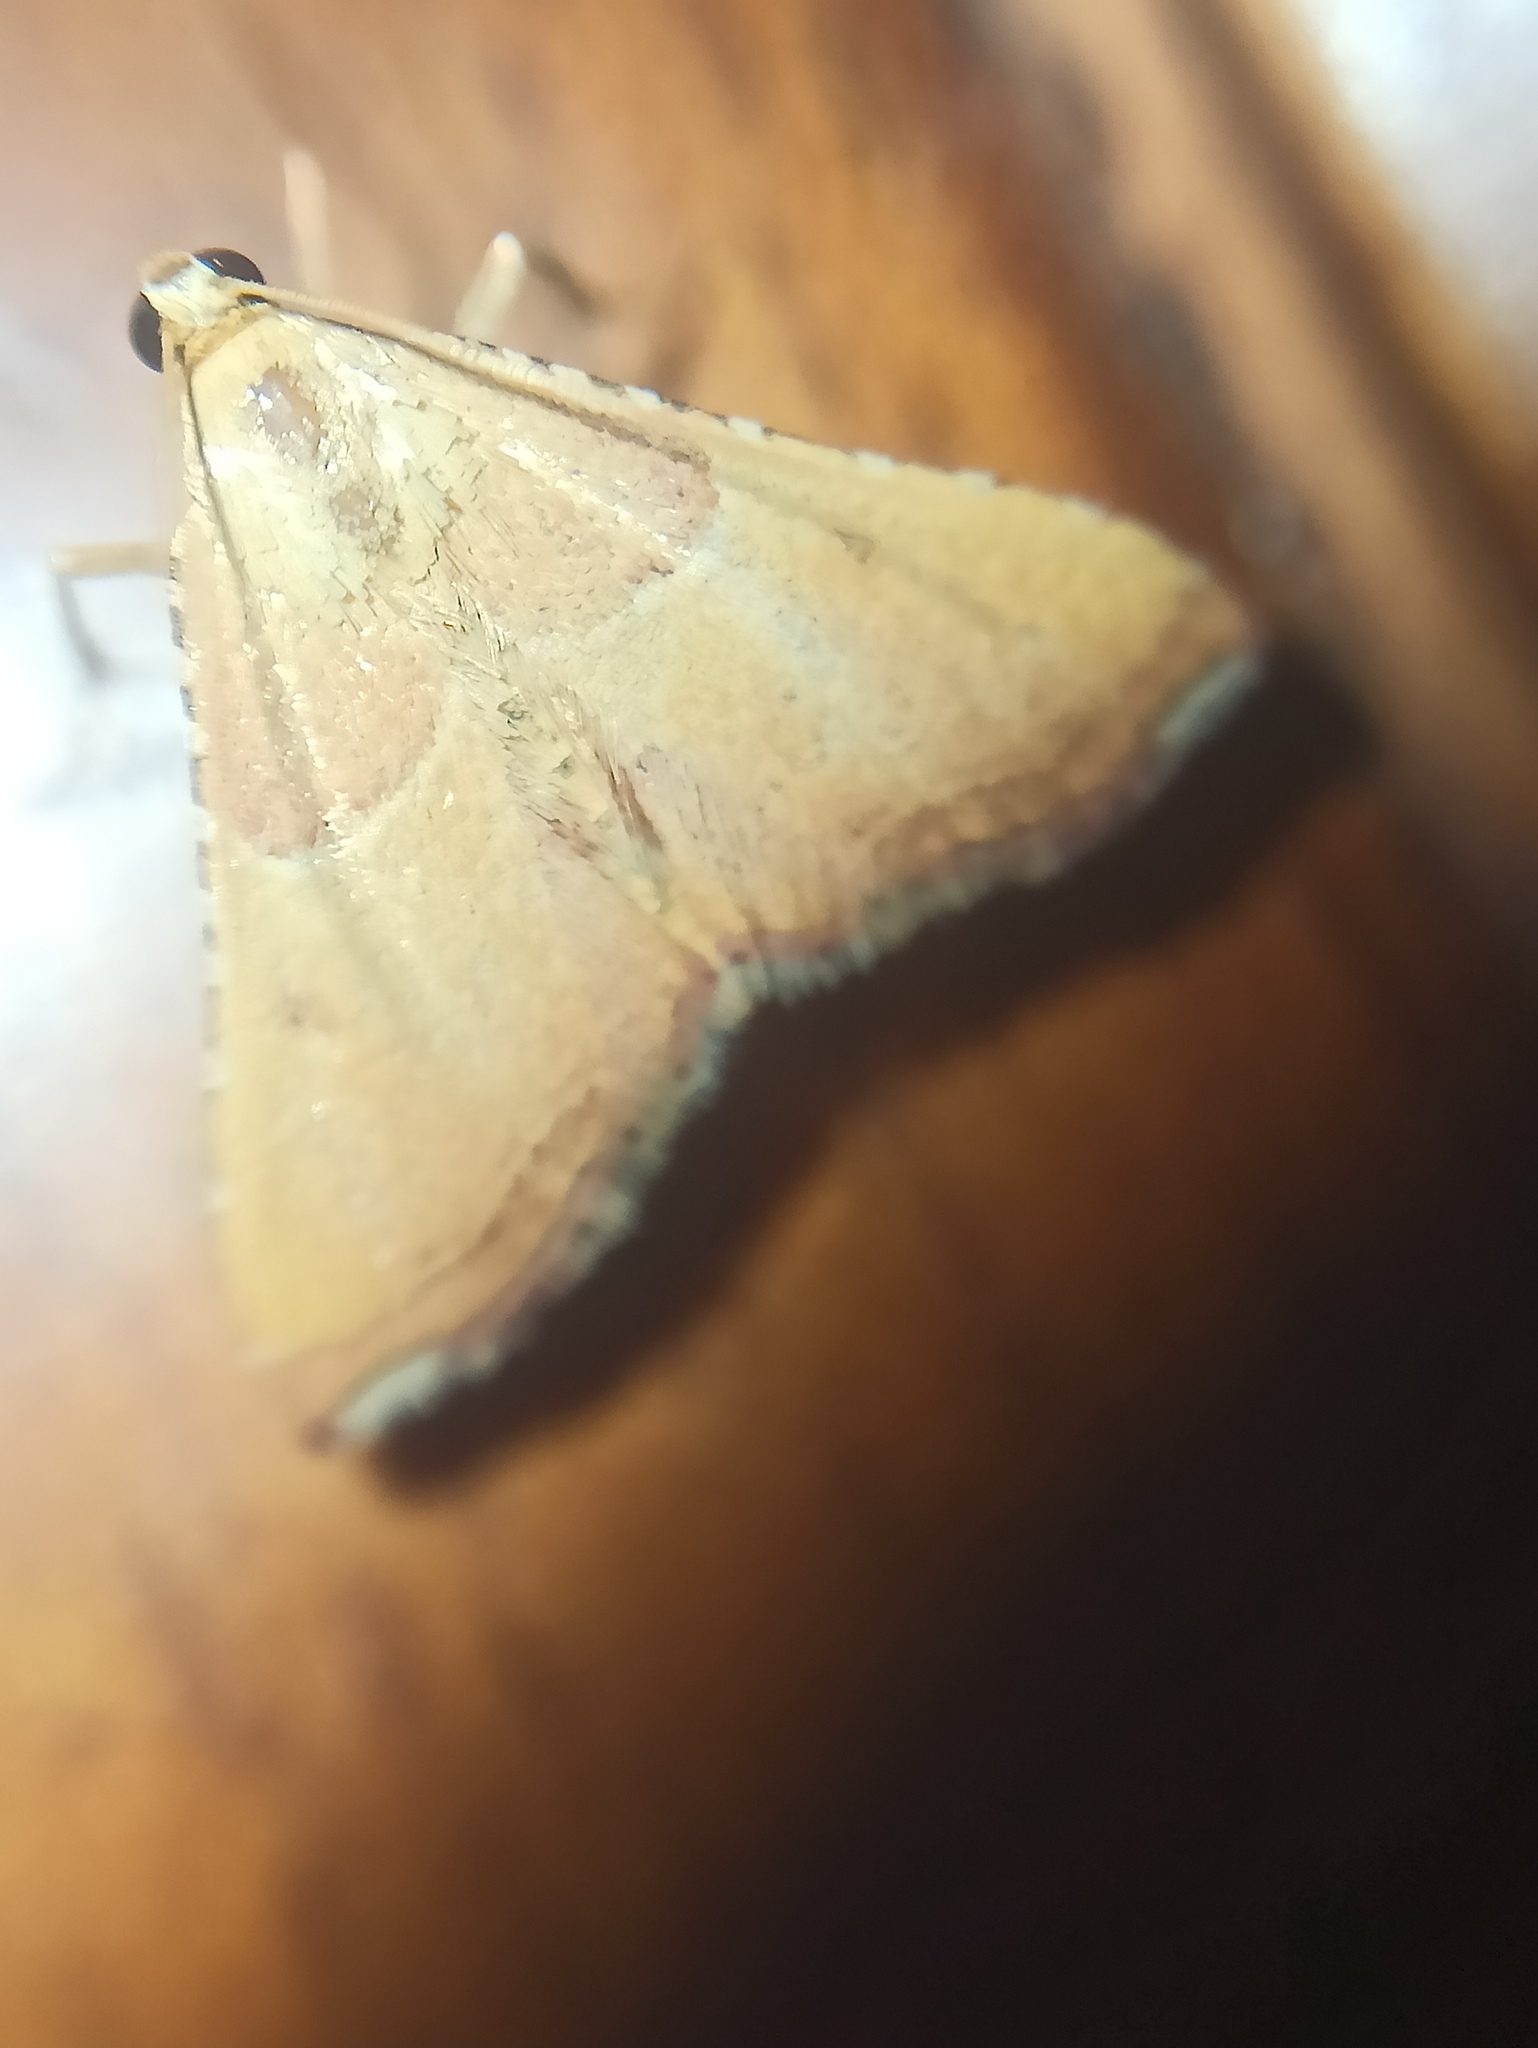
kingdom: Animalia
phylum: Arthropoda
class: Insecta
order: Lepidoptera
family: Pyralidae
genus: Endotricha
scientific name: Endotricha flammealis
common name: Rosy tabby
